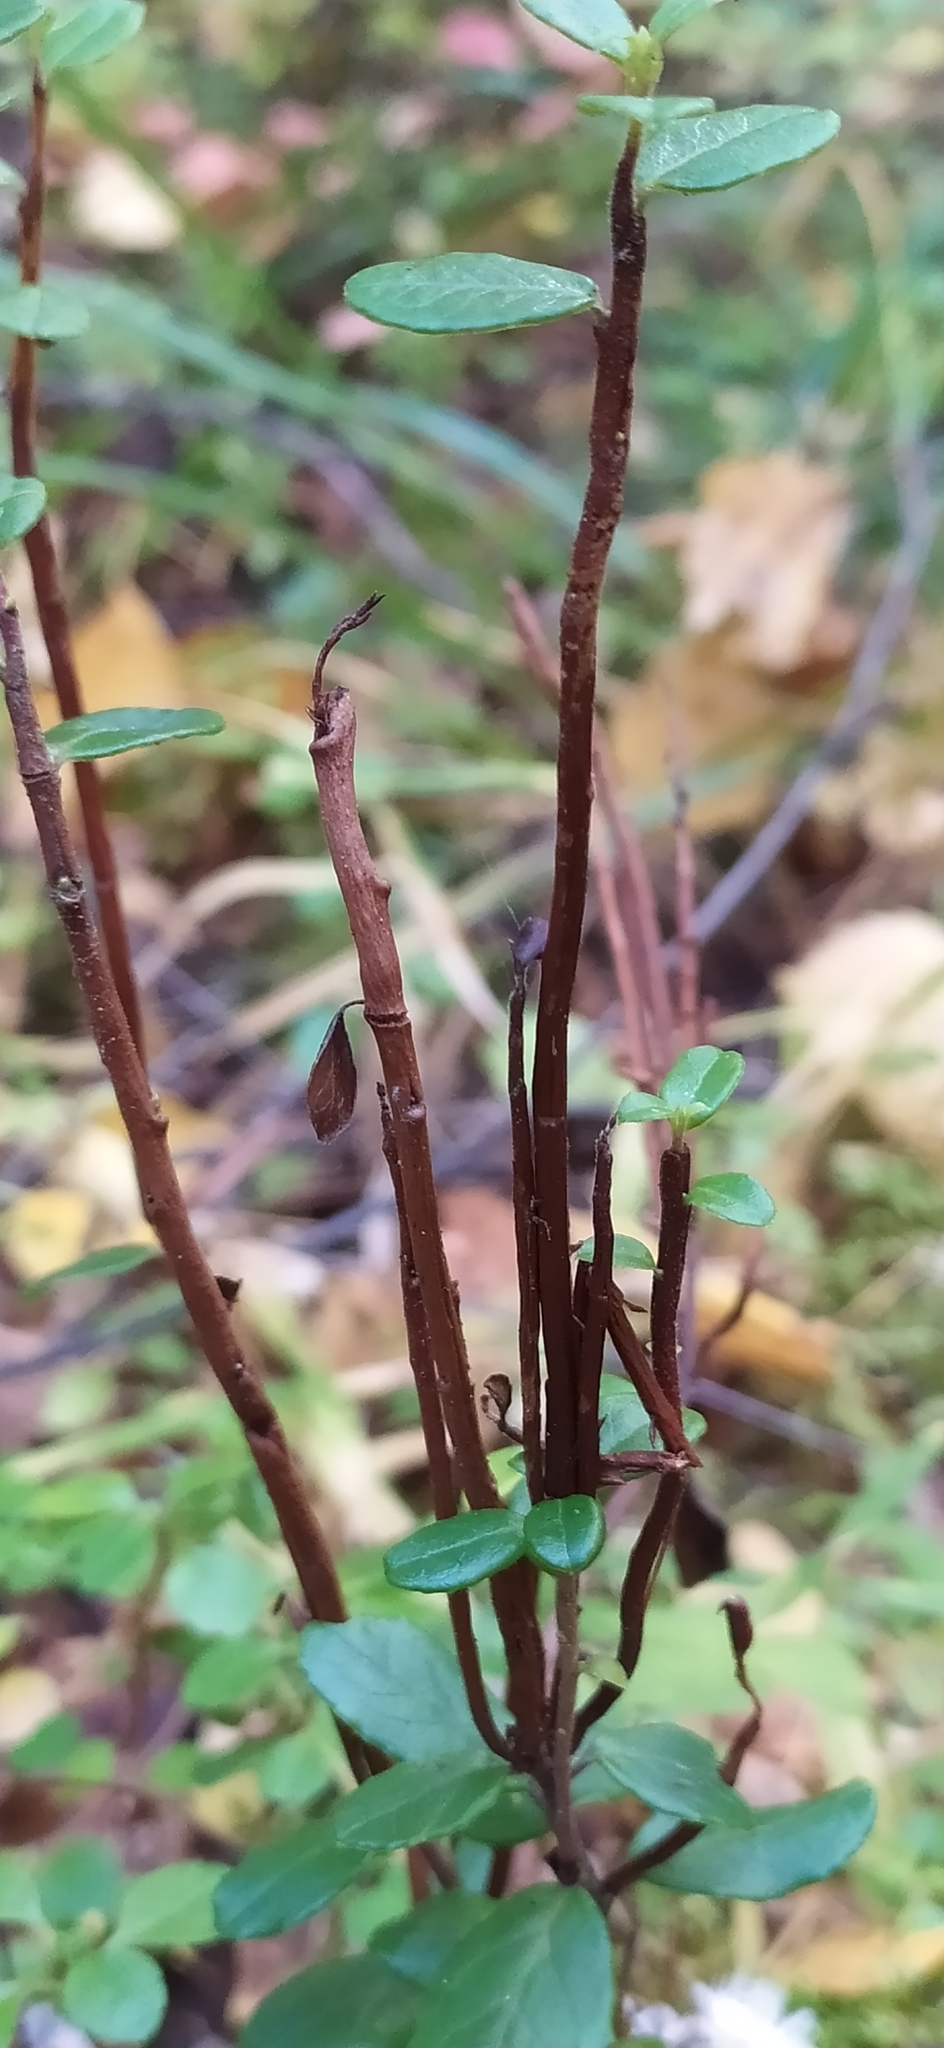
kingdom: Fungi
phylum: Basidiomycota
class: Pucciniomycetes
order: Pucciniales
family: Pucciniastraceae
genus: Calyptospora
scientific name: Calyptospora columnaris
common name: Huckleberry broom rust fungus
